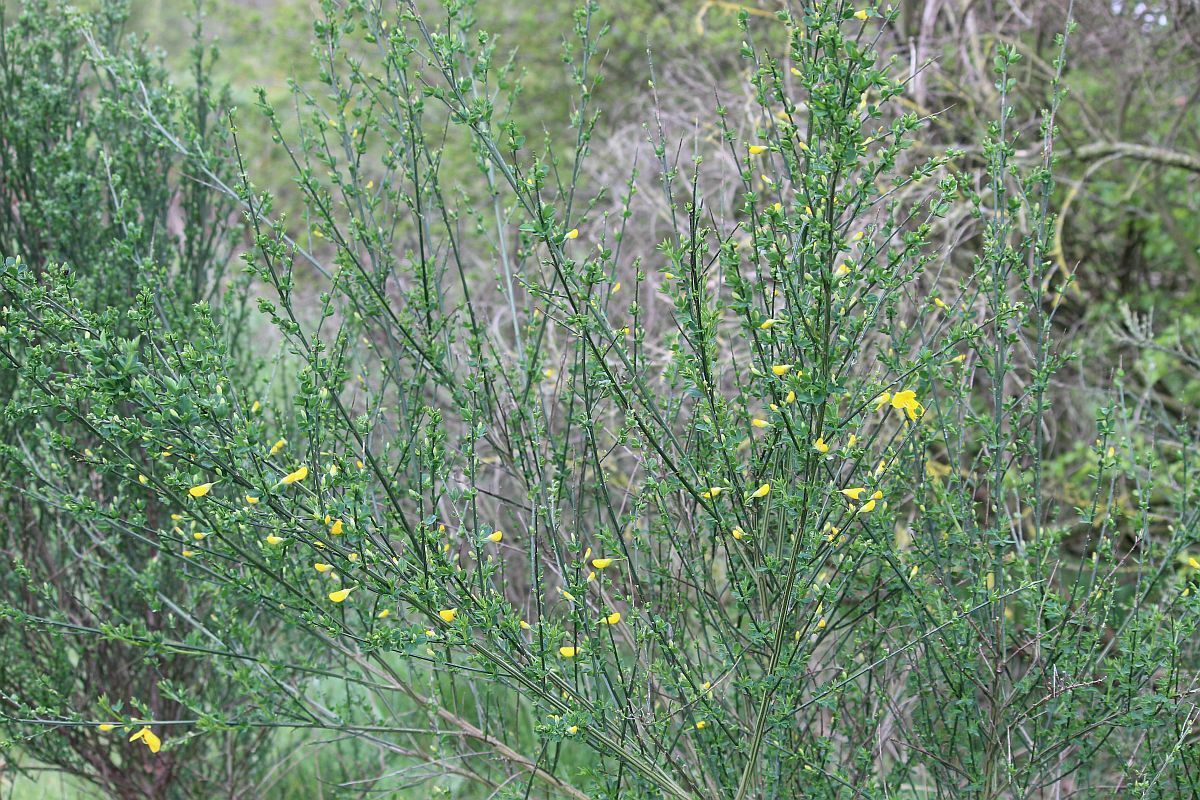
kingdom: Plantae
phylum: Tracheophyta
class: Magnoliopsida
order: Fabales
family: Fabaceae
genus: Cytisus
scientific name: Cytisus scoparius
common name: Scotch broom
